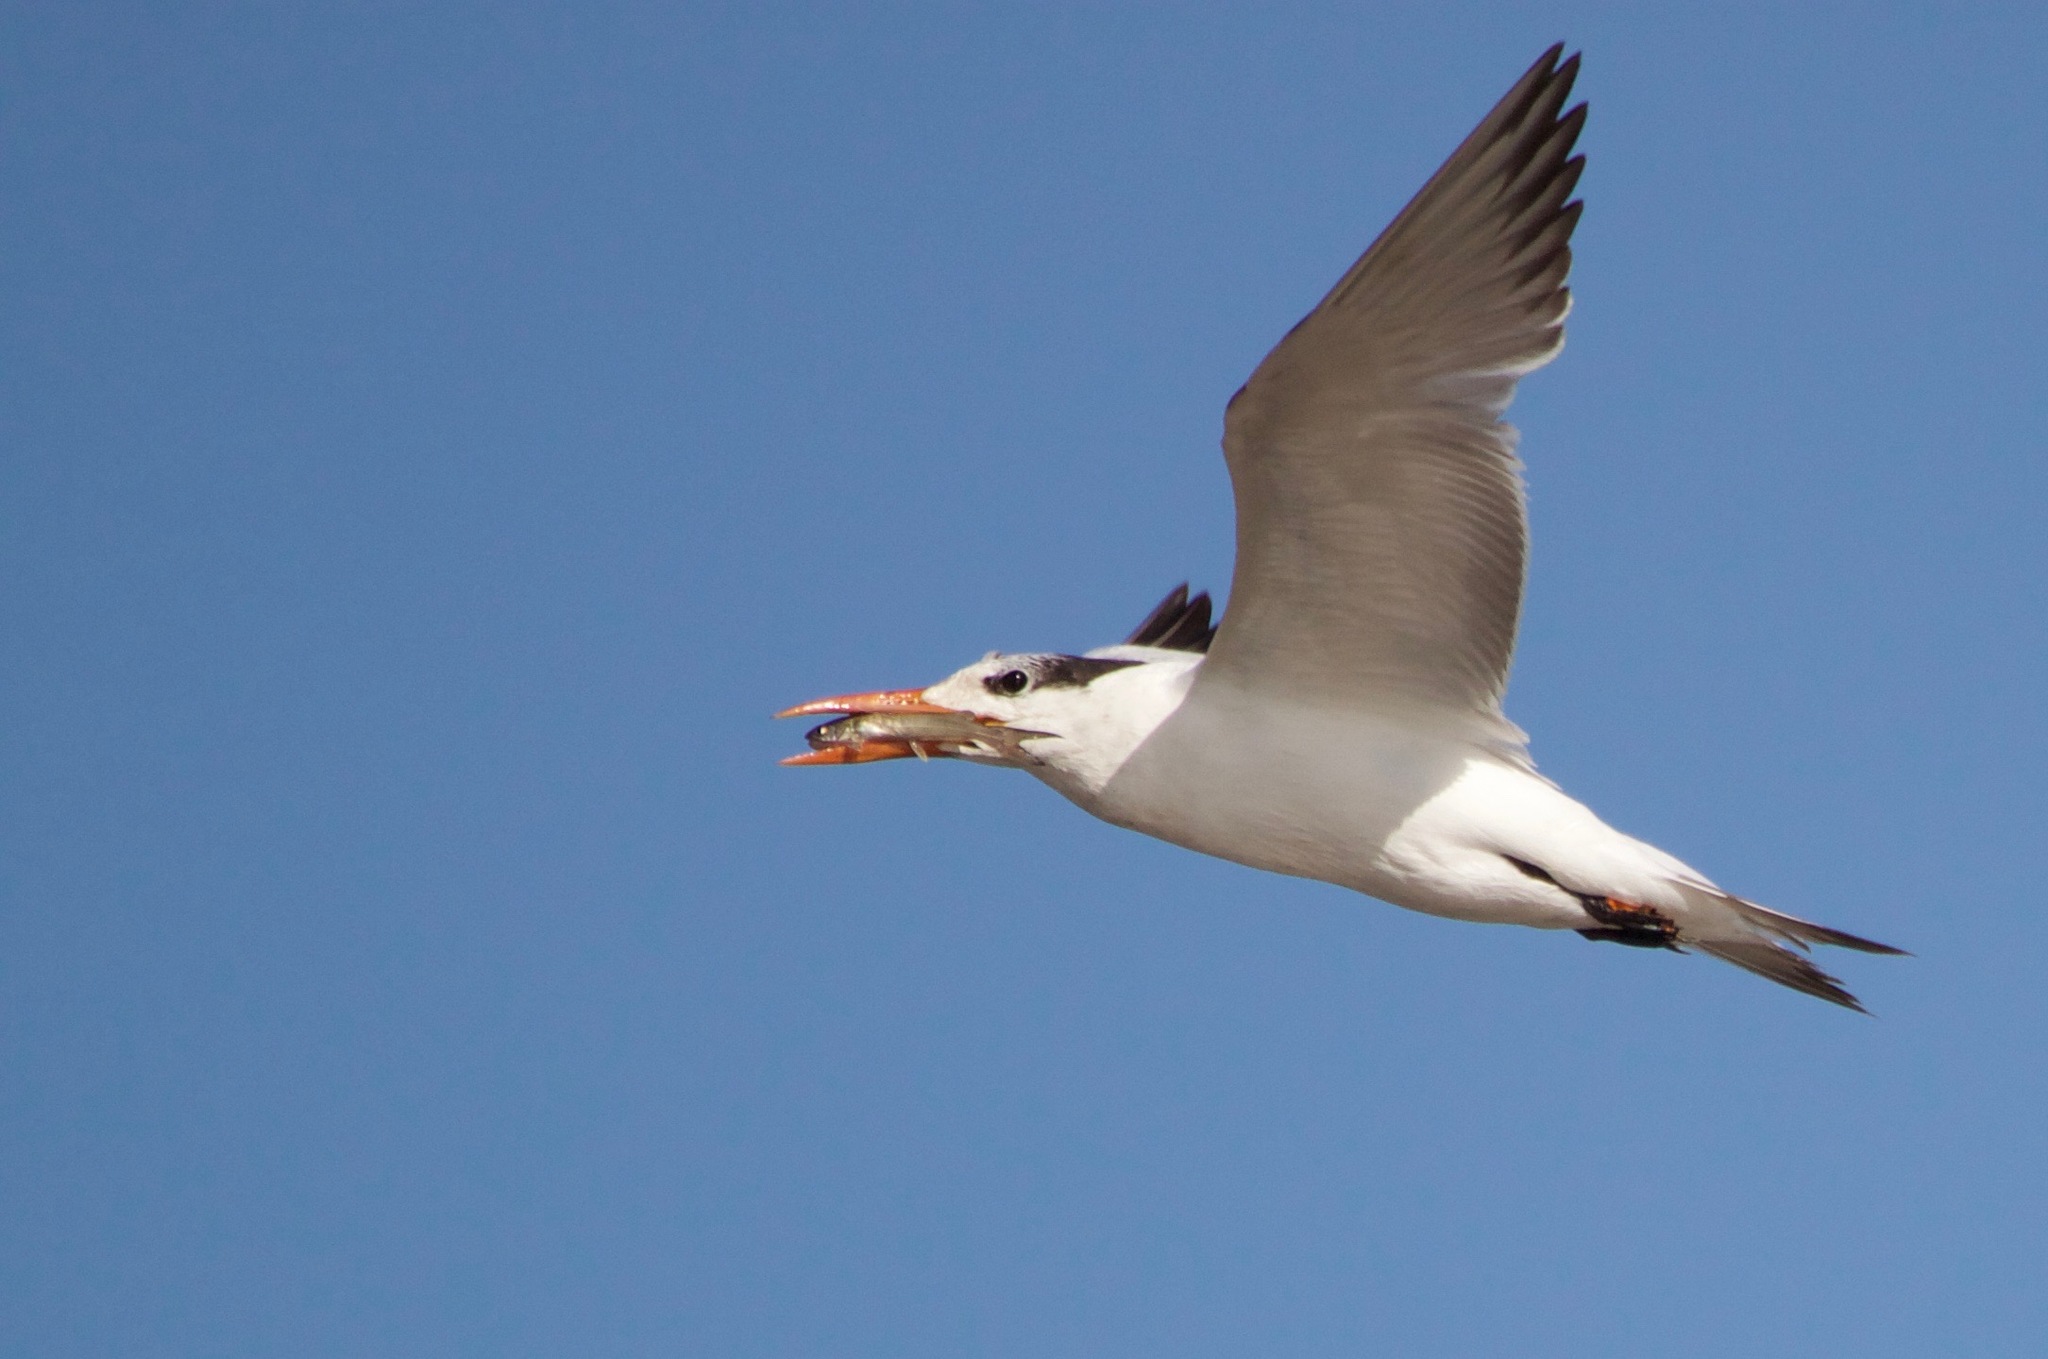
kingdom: Animalia
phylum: Chordata
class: Aves
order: Charadriiformes
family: Laridae
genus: Thalasseus
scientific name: Thalasseus maximus
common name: Royal tern
